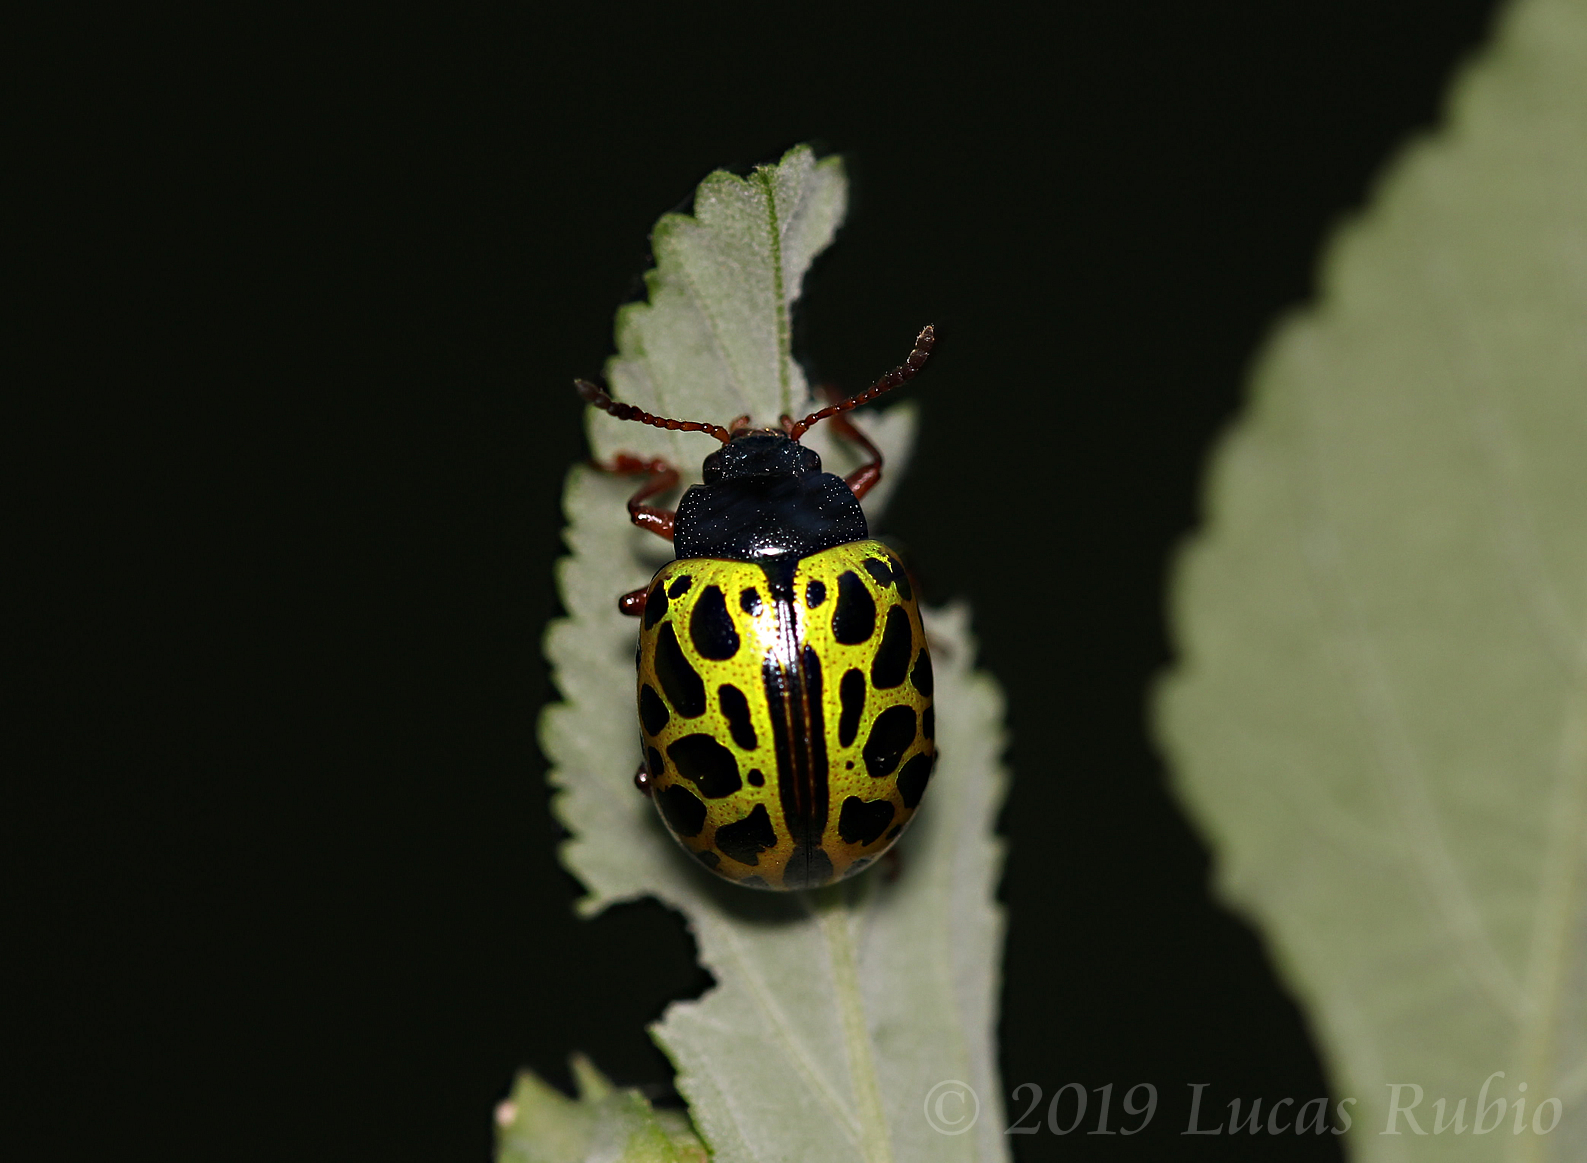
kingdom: Animalia
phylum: Arthropoda
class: Insecta
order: Coleoptera
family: Chrysomelidae
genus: Calligrapha
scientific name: Calligrapha polyspila
